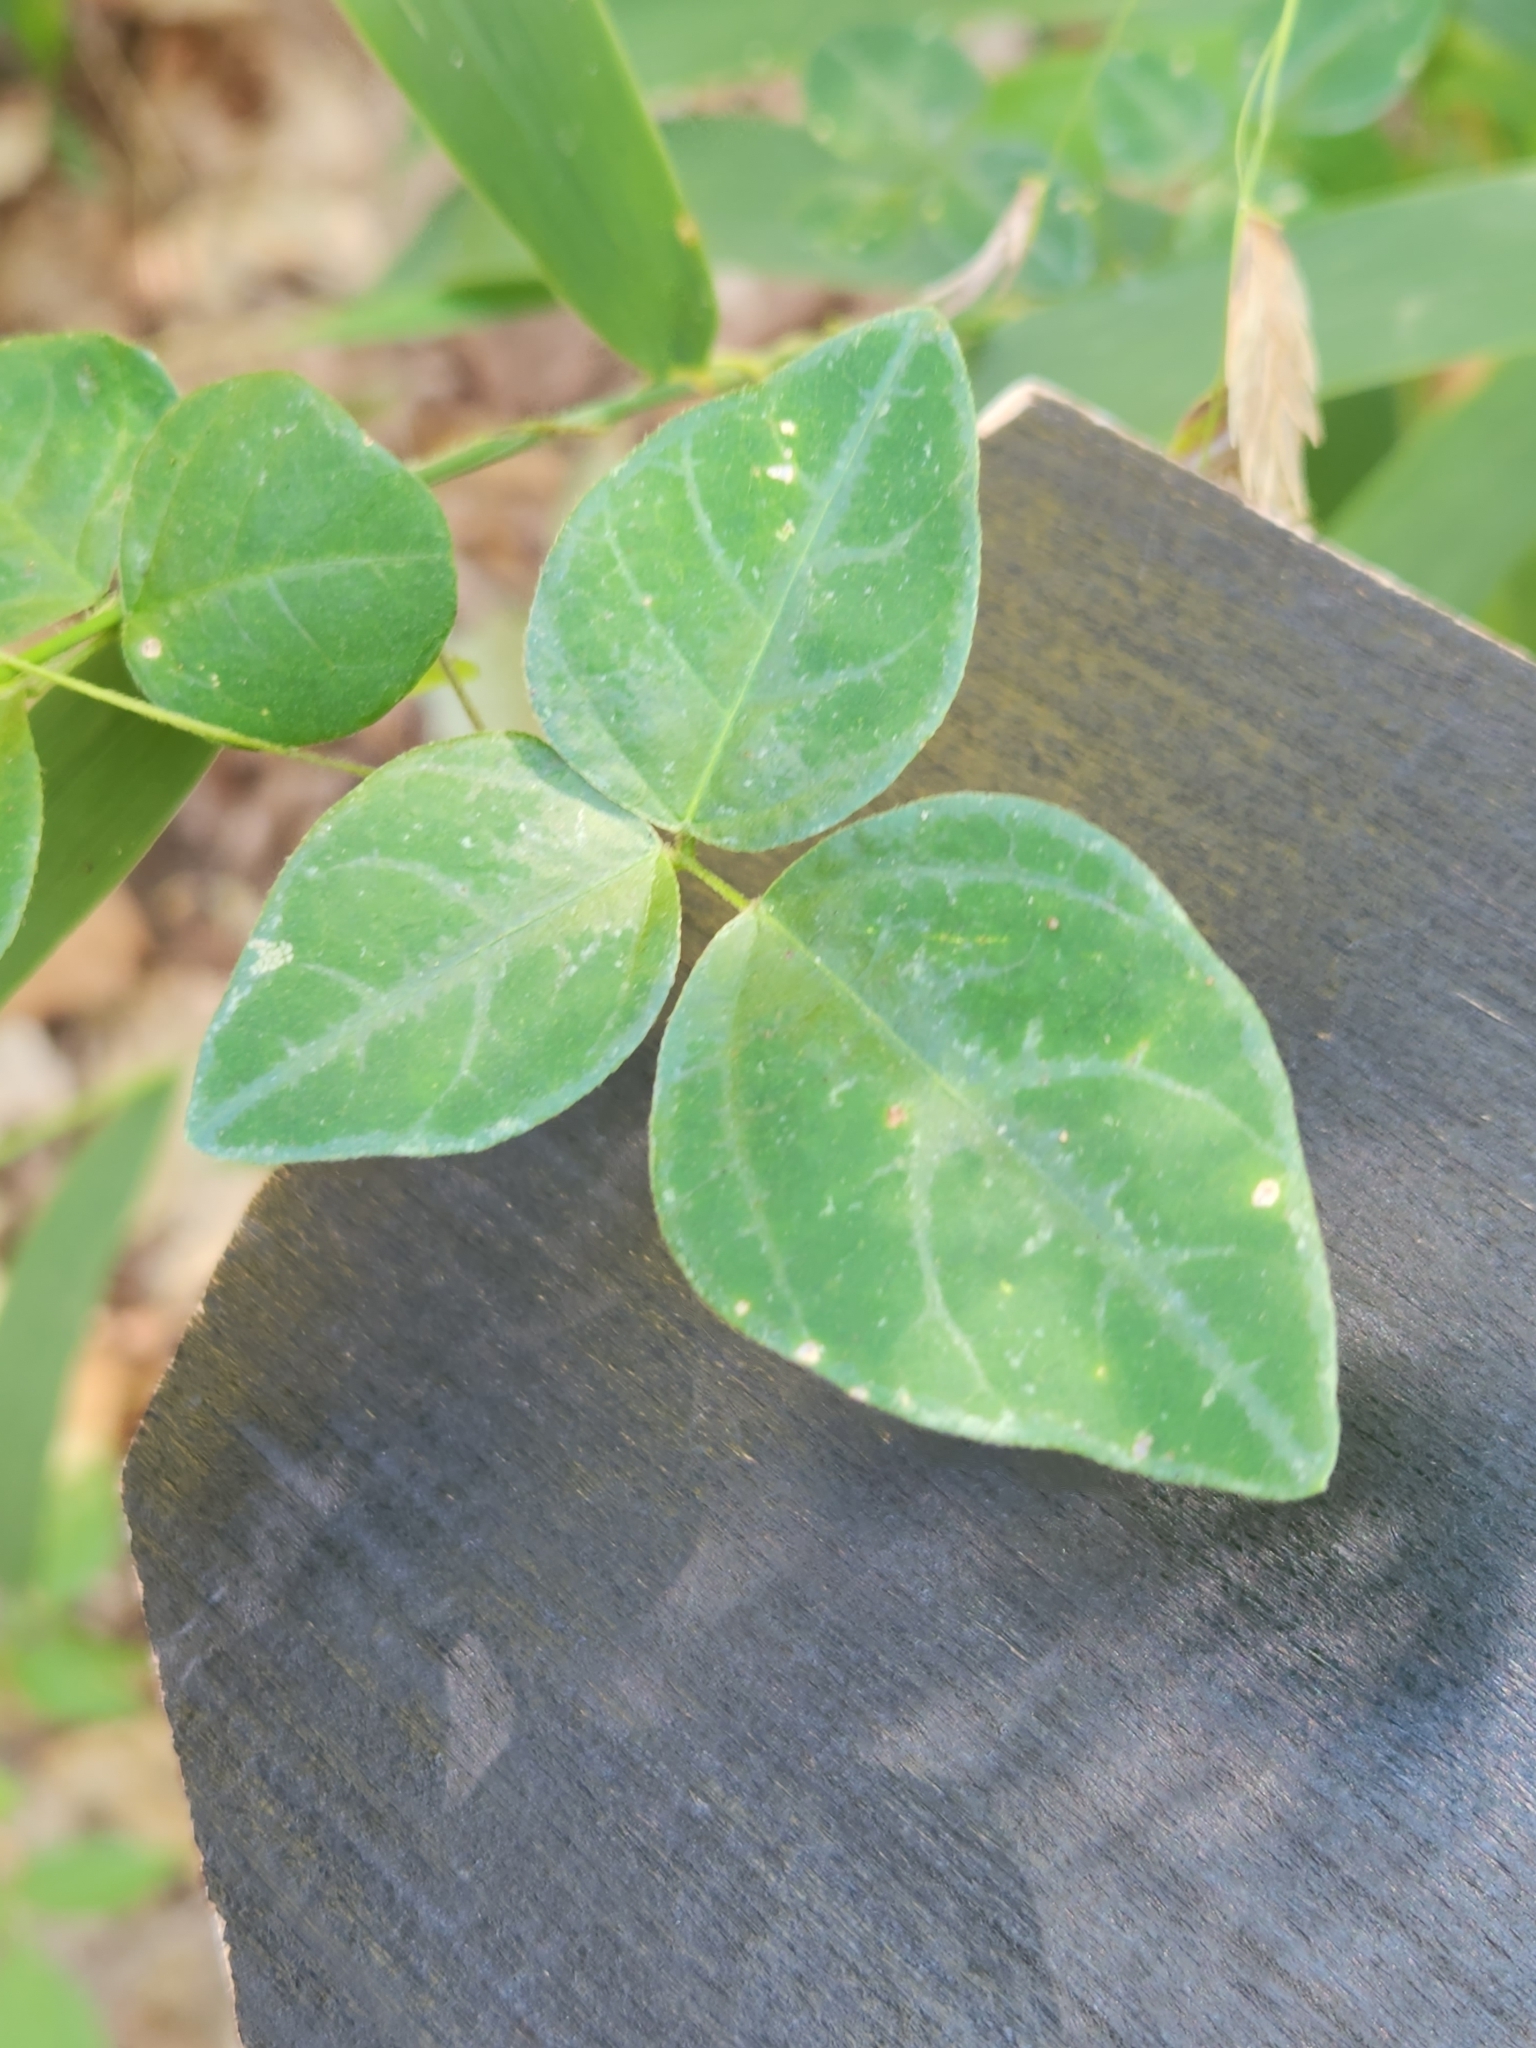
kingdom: Plantae
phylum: Tracheophyta
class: Magnoliopsida
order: Fabales
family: Fabaceae
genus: Amphicarpaea
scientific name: Amphicarpaea bracteata
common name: American hog peanut
